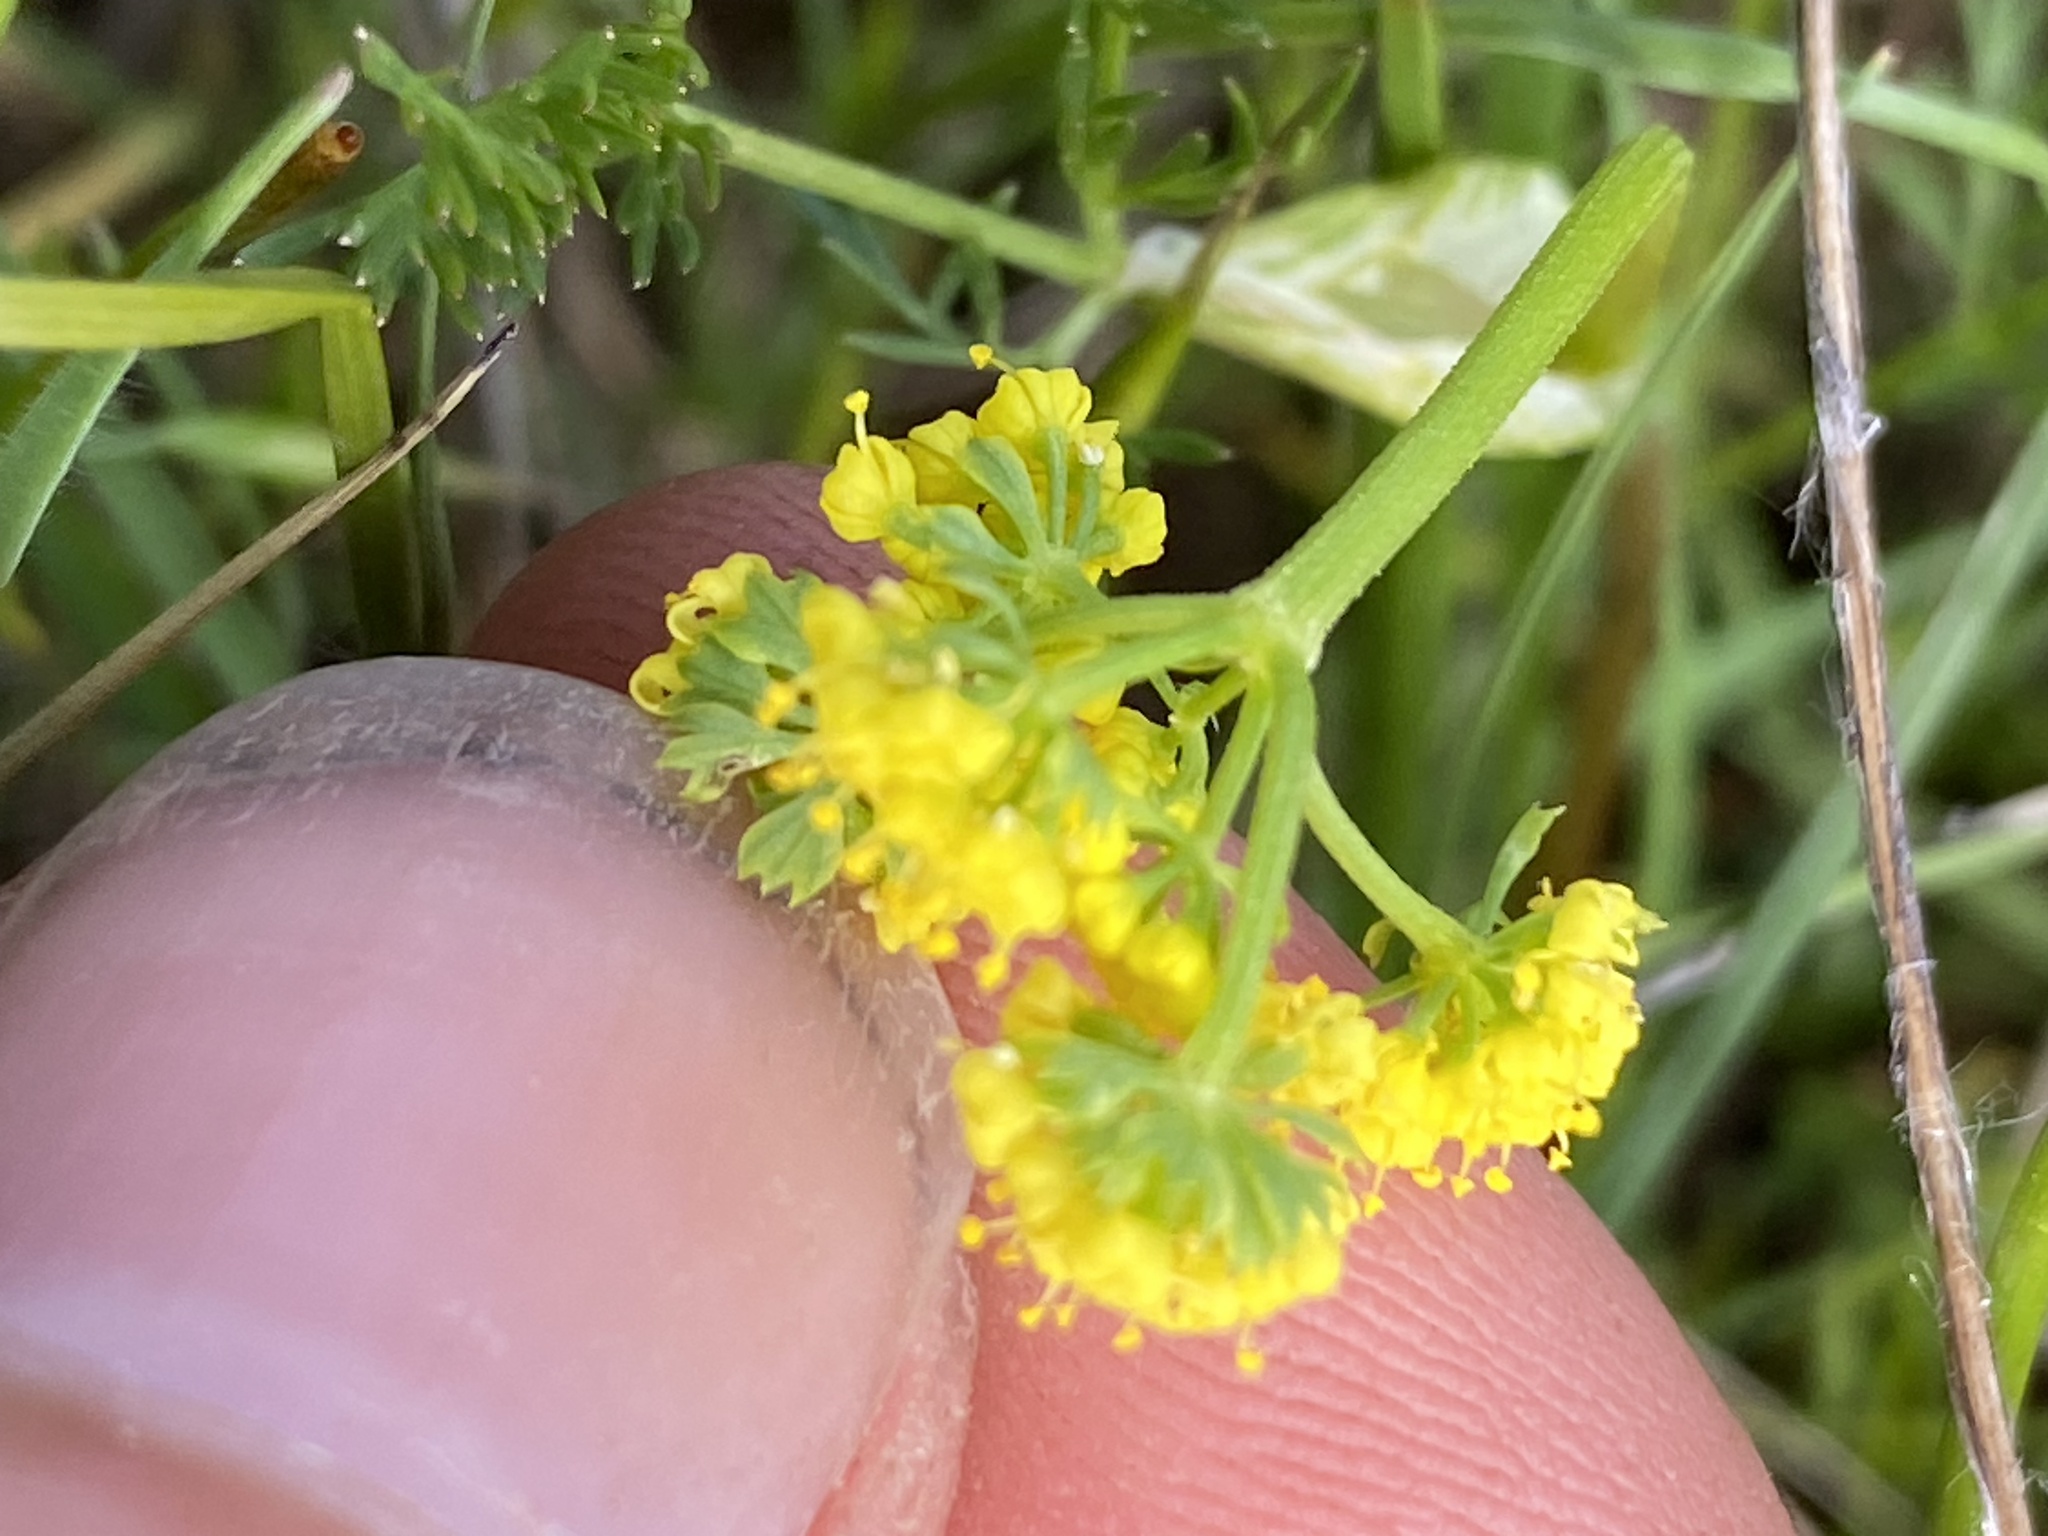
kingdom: Plantae
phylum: Tracheophyta
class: Magnoliopsida
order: Apiales
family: Apiaceae
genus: Lomatium
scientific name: Lomatium utriculatum
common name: Fine-leaf desert-parsley
